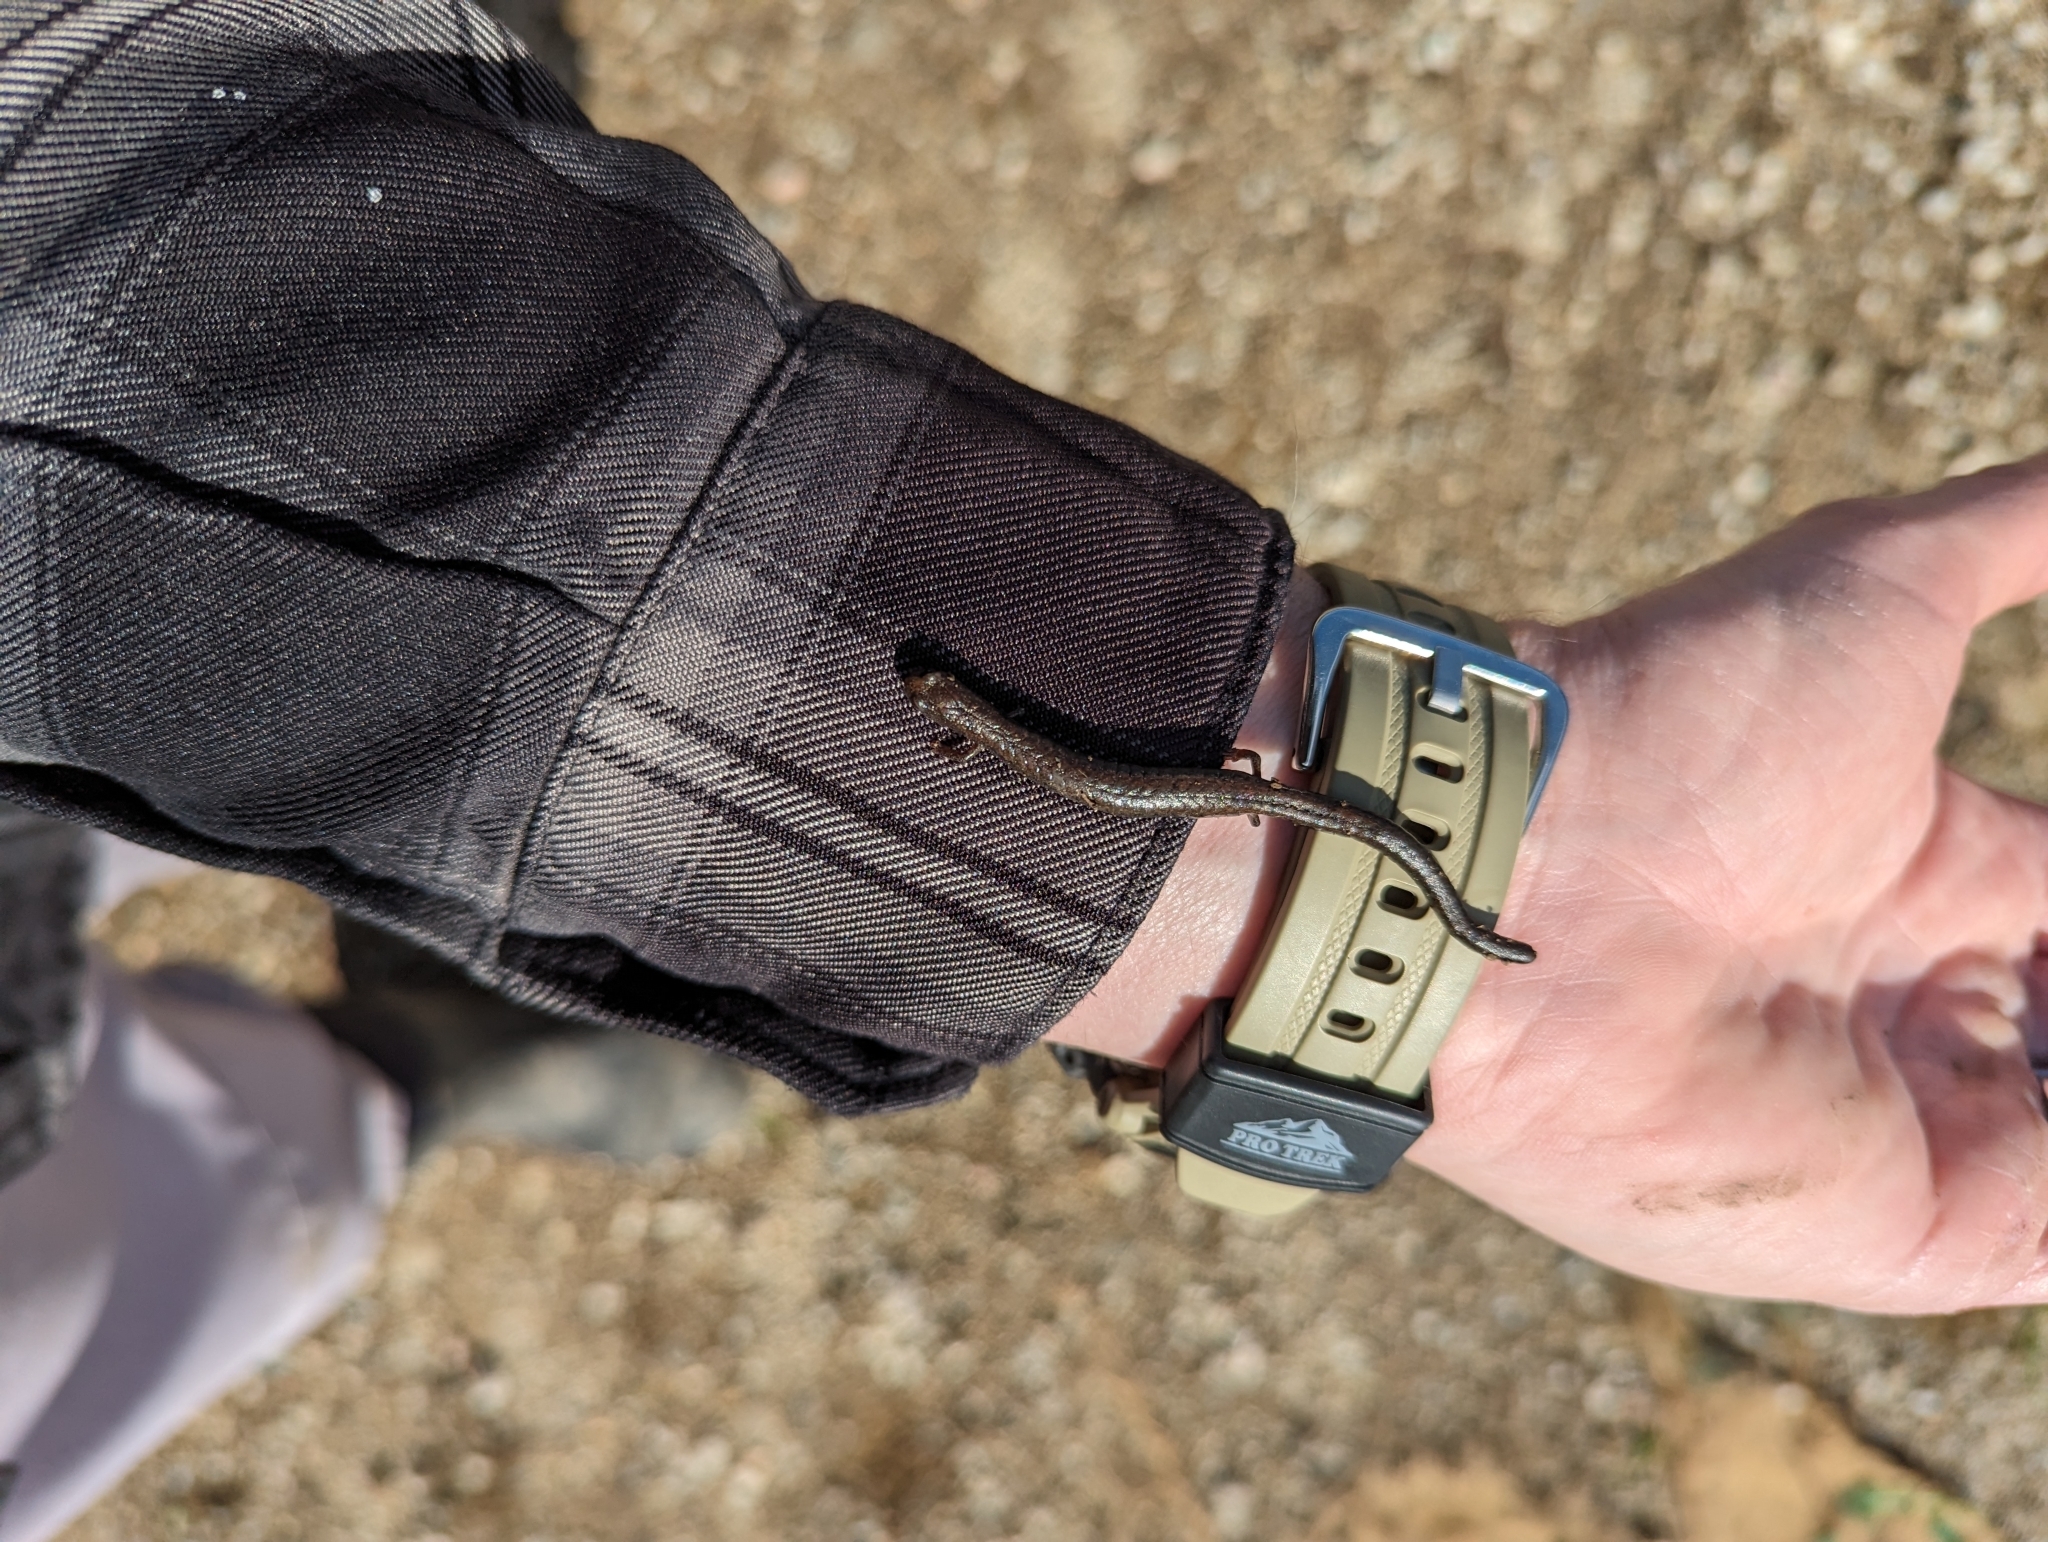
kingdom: Animalia
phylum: Chordata
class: Amphibia
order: Caudata
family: Plethodontidae
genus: Batrachoseps
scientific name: Batrachoseps nigriventris
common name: Black-bellied slender salamander
